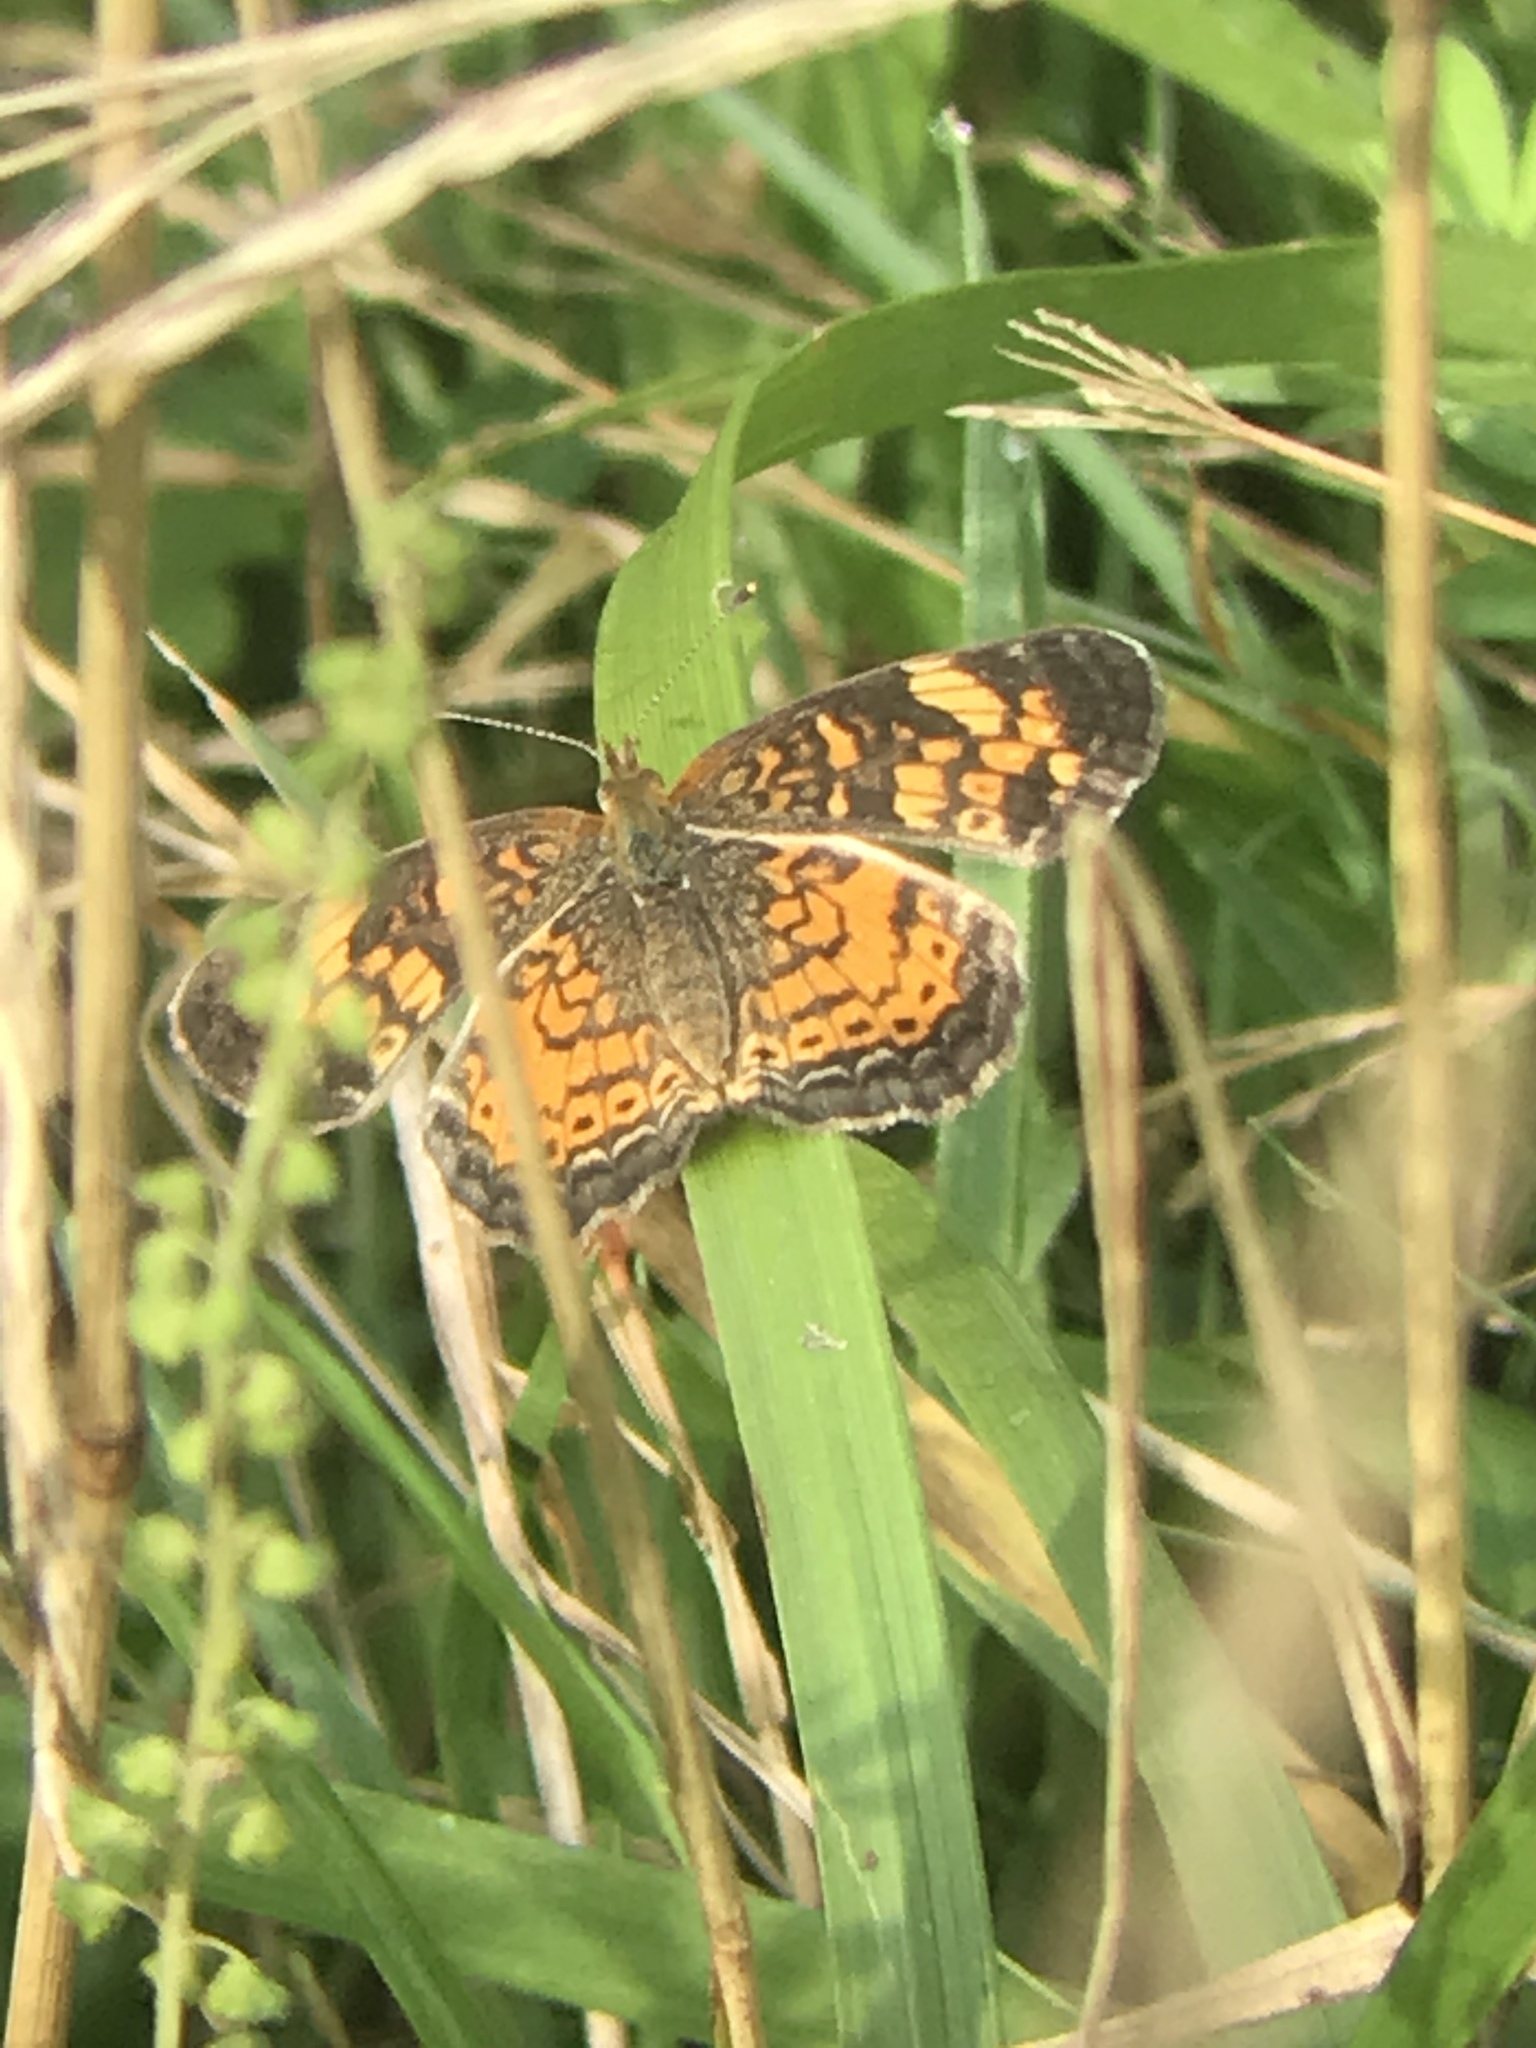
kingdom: Animalia
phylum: Arthropoda
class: Insecta
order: Lepidoptera
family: Nymphalidae
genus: Phyciodes
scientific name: Phyciodes tharos
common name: Pearl crescent
